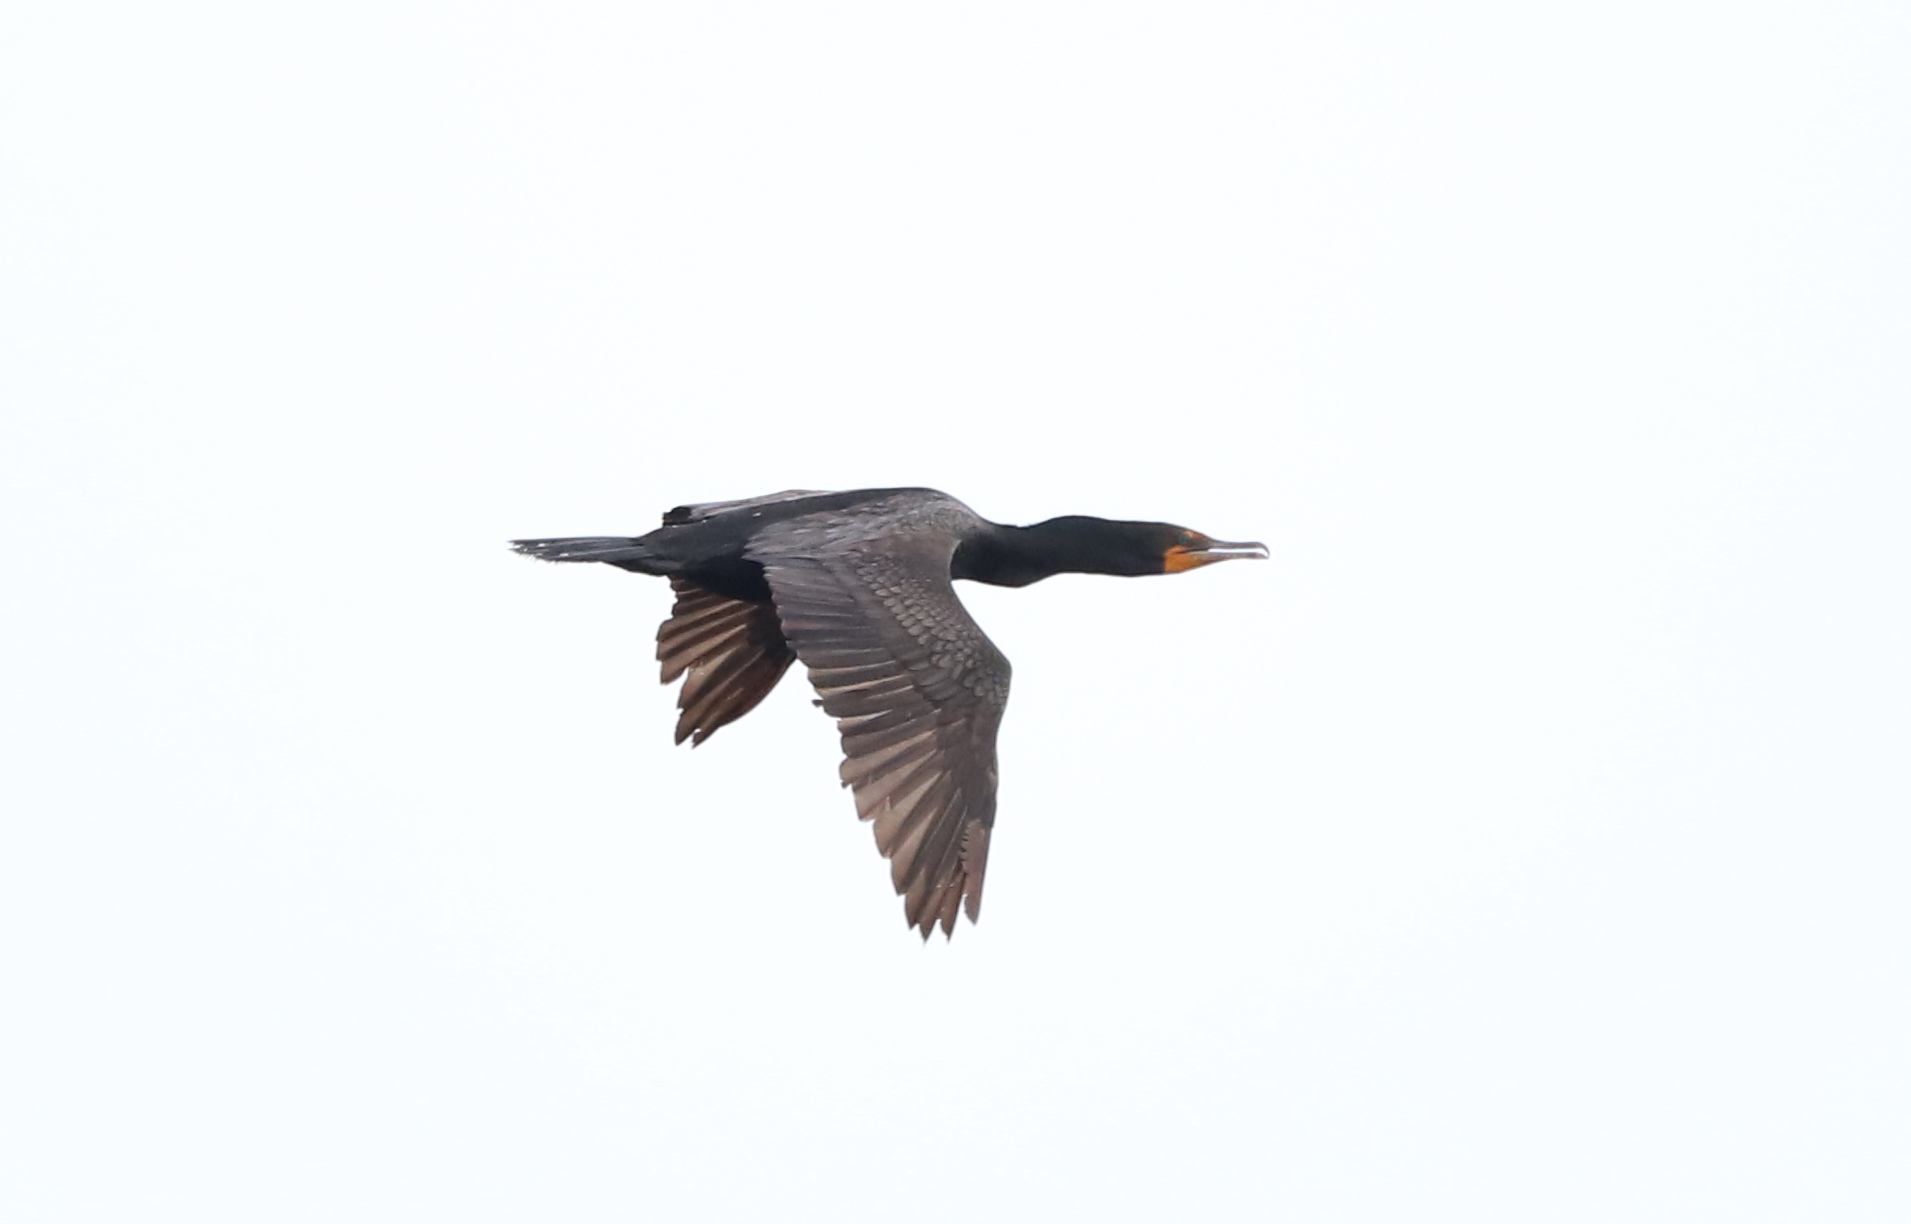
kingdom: Animalia
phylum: Chordata
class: Aves
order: Suliformes
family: Phalacrocoracidae
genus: Phalacrocorax
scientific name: Phalacrocorax auritus
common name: Double-crested cormorant
